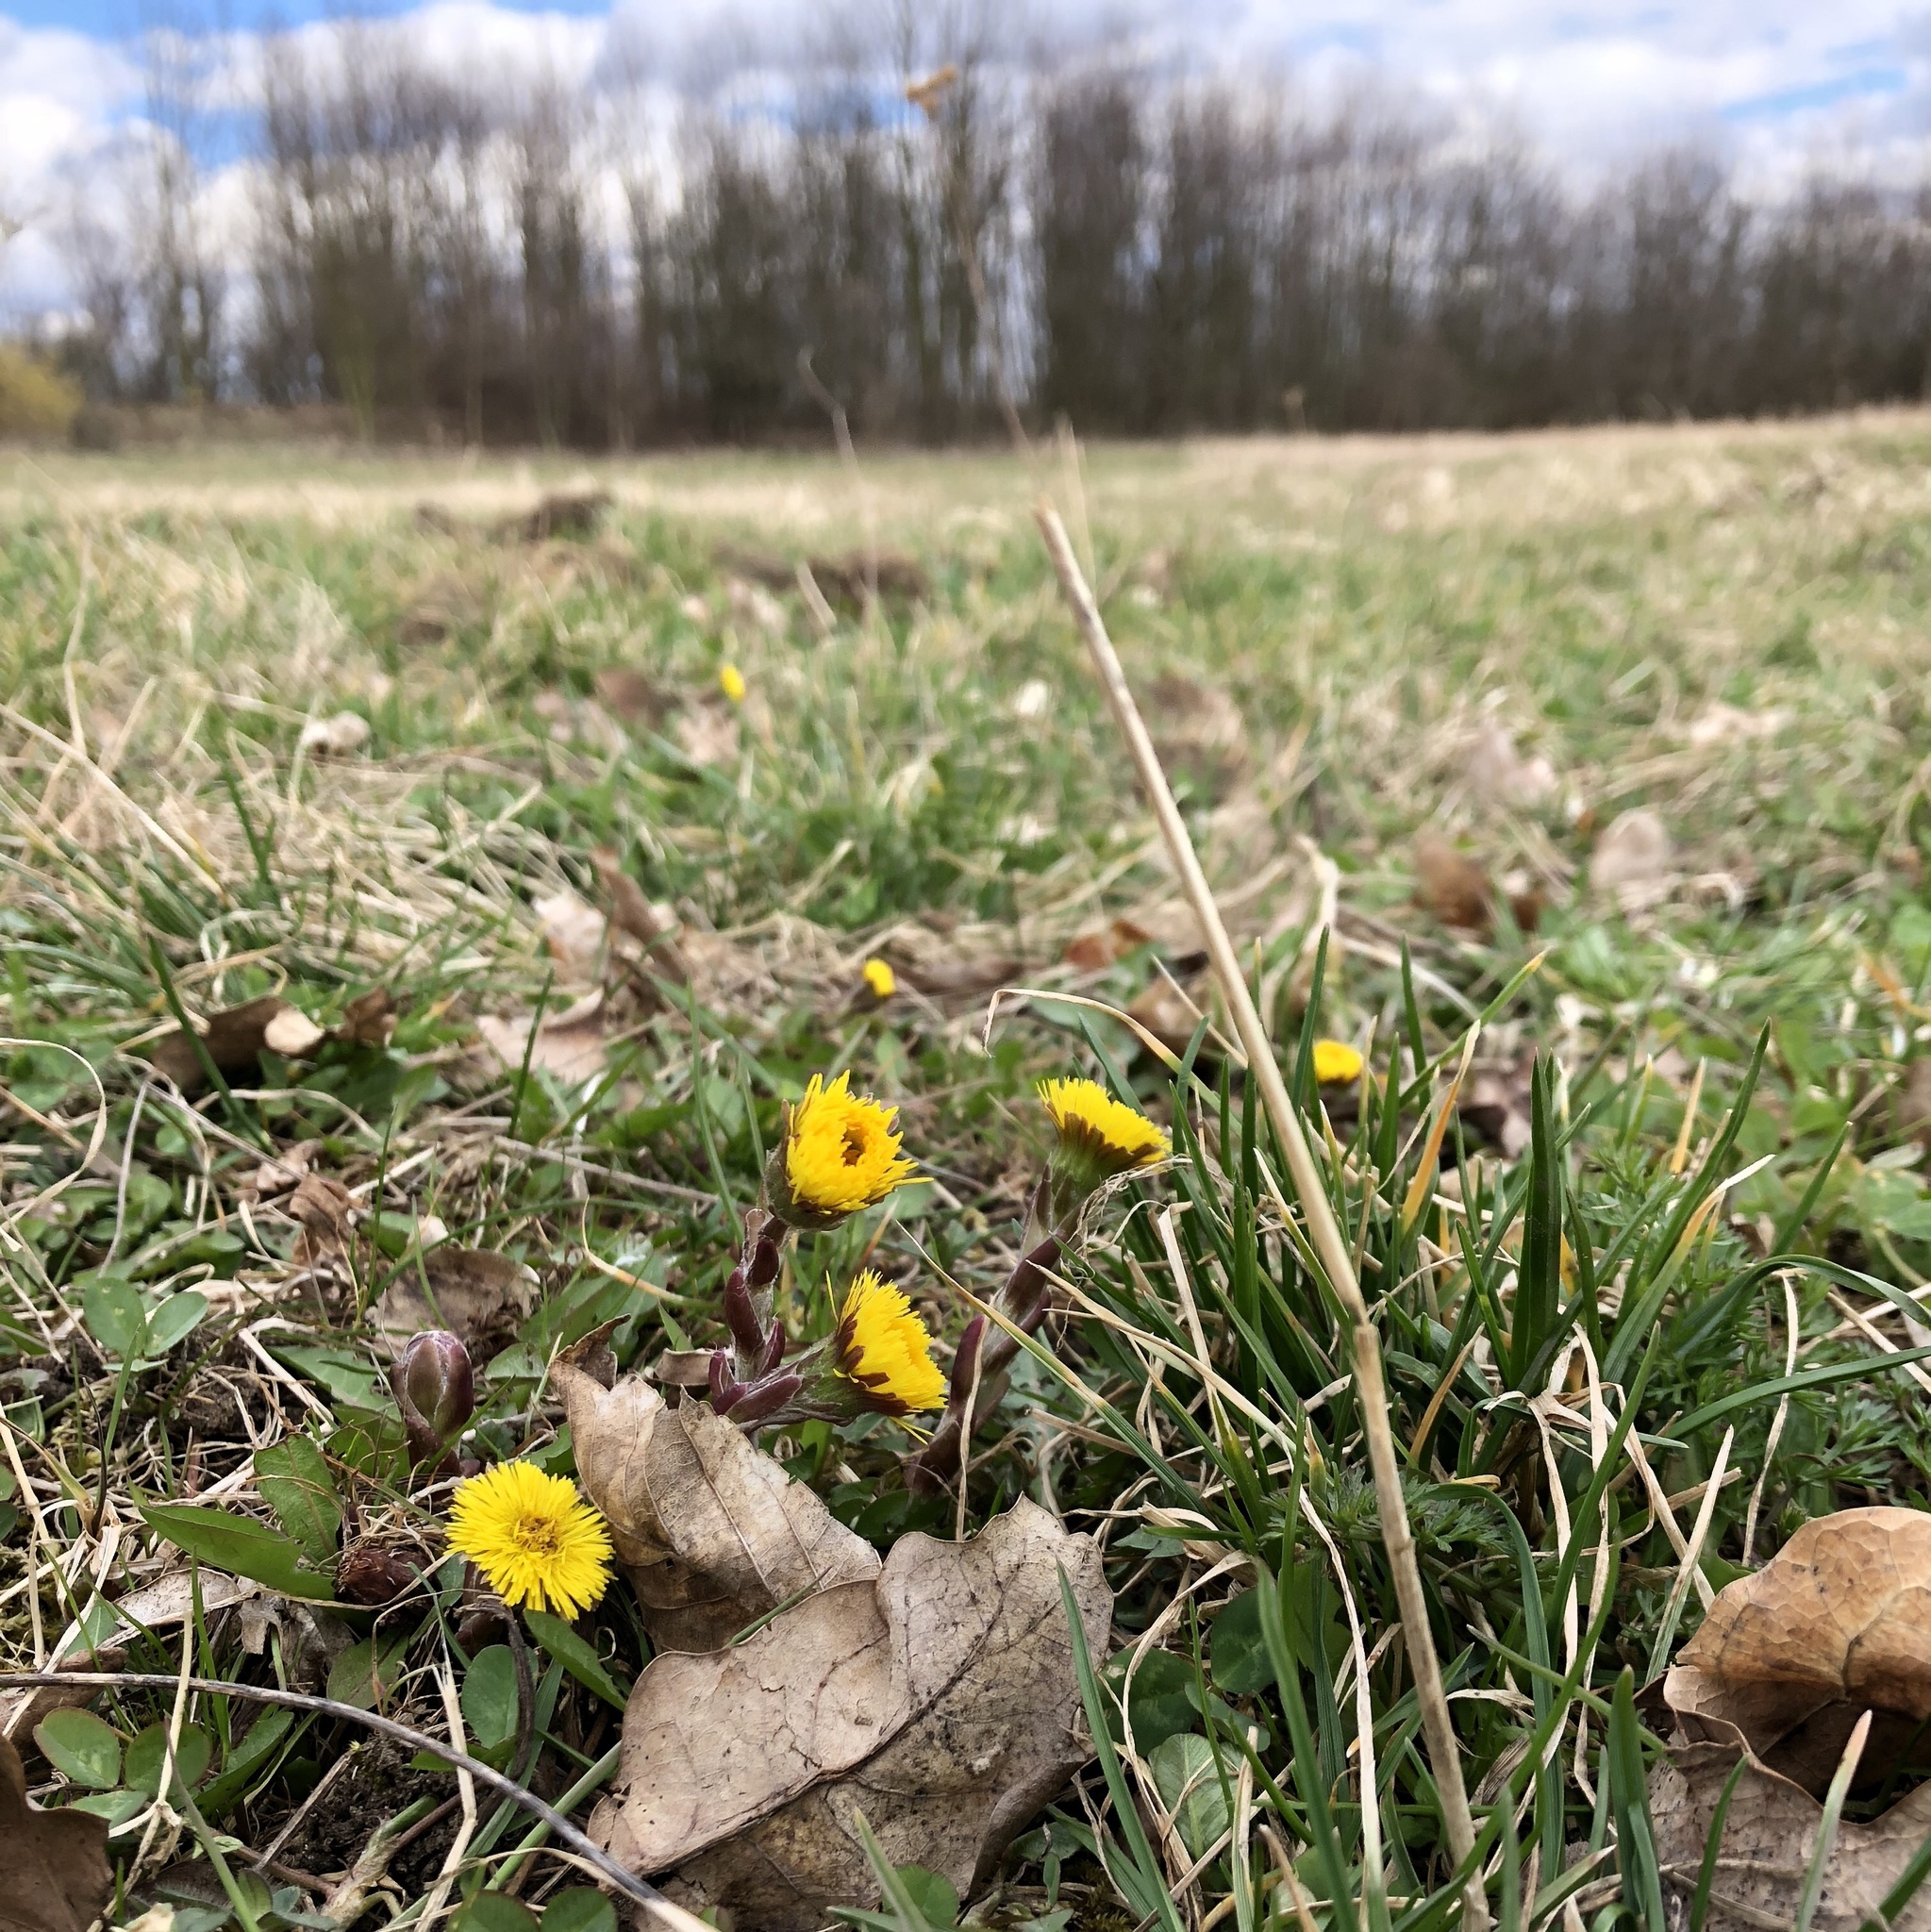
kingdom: Plantae
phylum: Tracheophyta
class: Magnoliopsida
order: Asterales
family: Asteraceae
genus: Tussilago
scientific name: Tussilago farfara
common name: Coltsfoot
